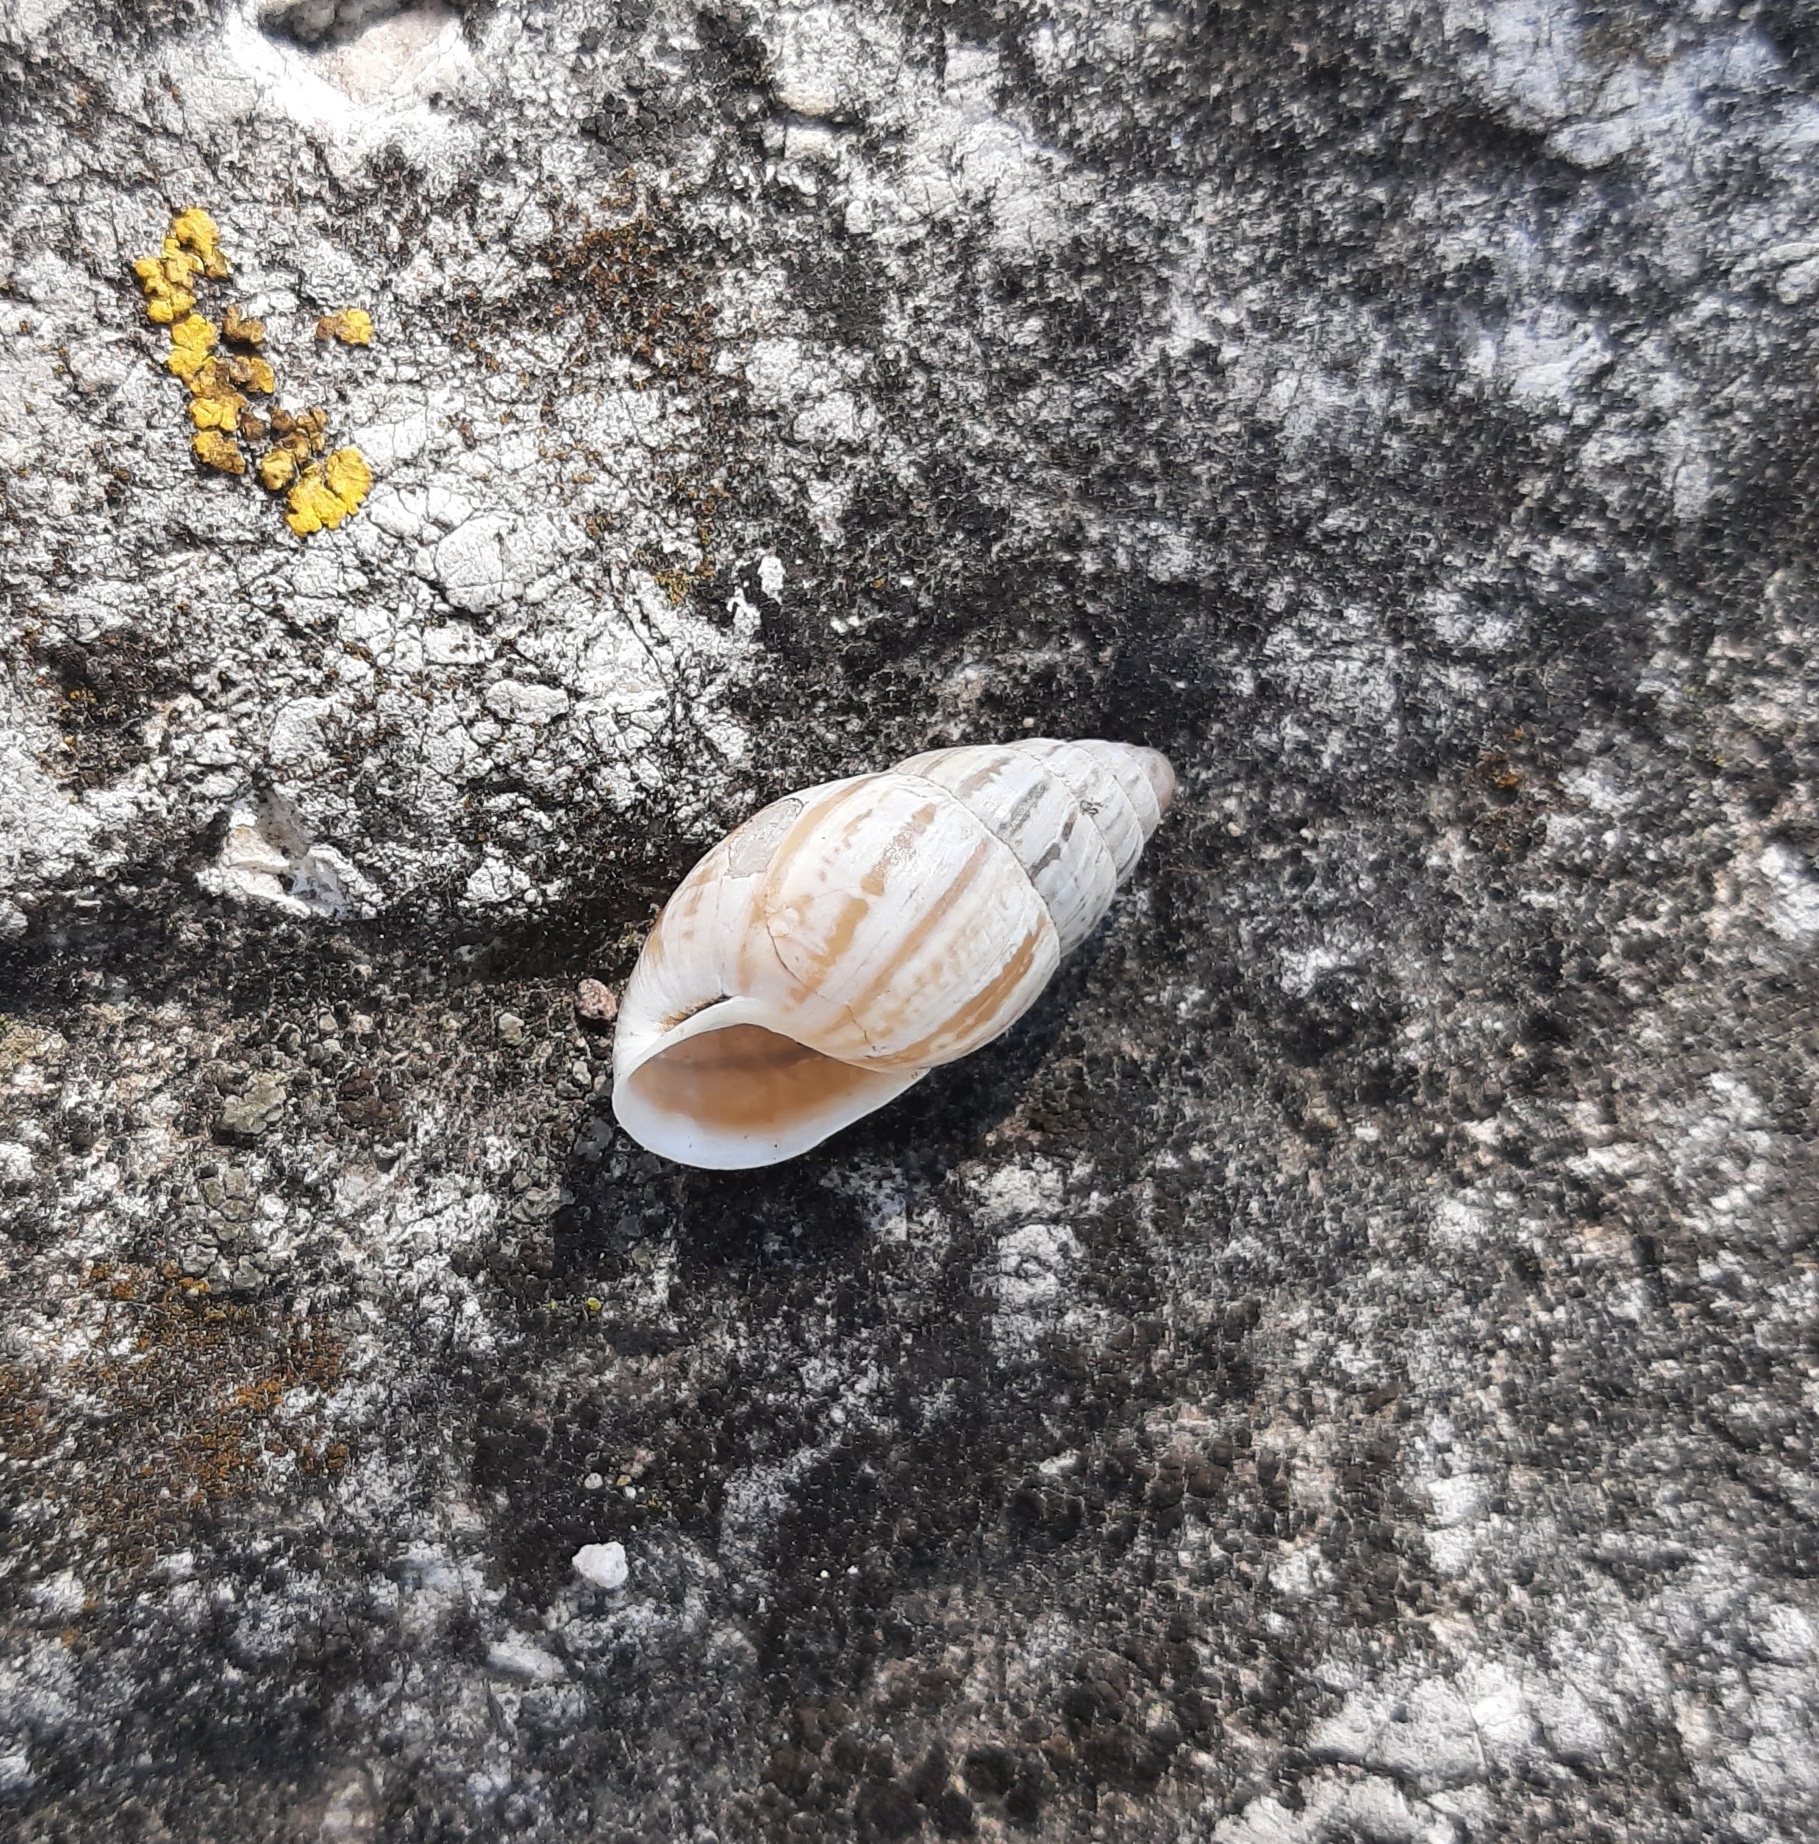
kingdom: Animalia
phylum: Mollusca
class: Gastropoda
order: Stylommatophora
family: Enidae
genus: Zebrina
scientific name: Zebrina detrita
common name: Large bulin
